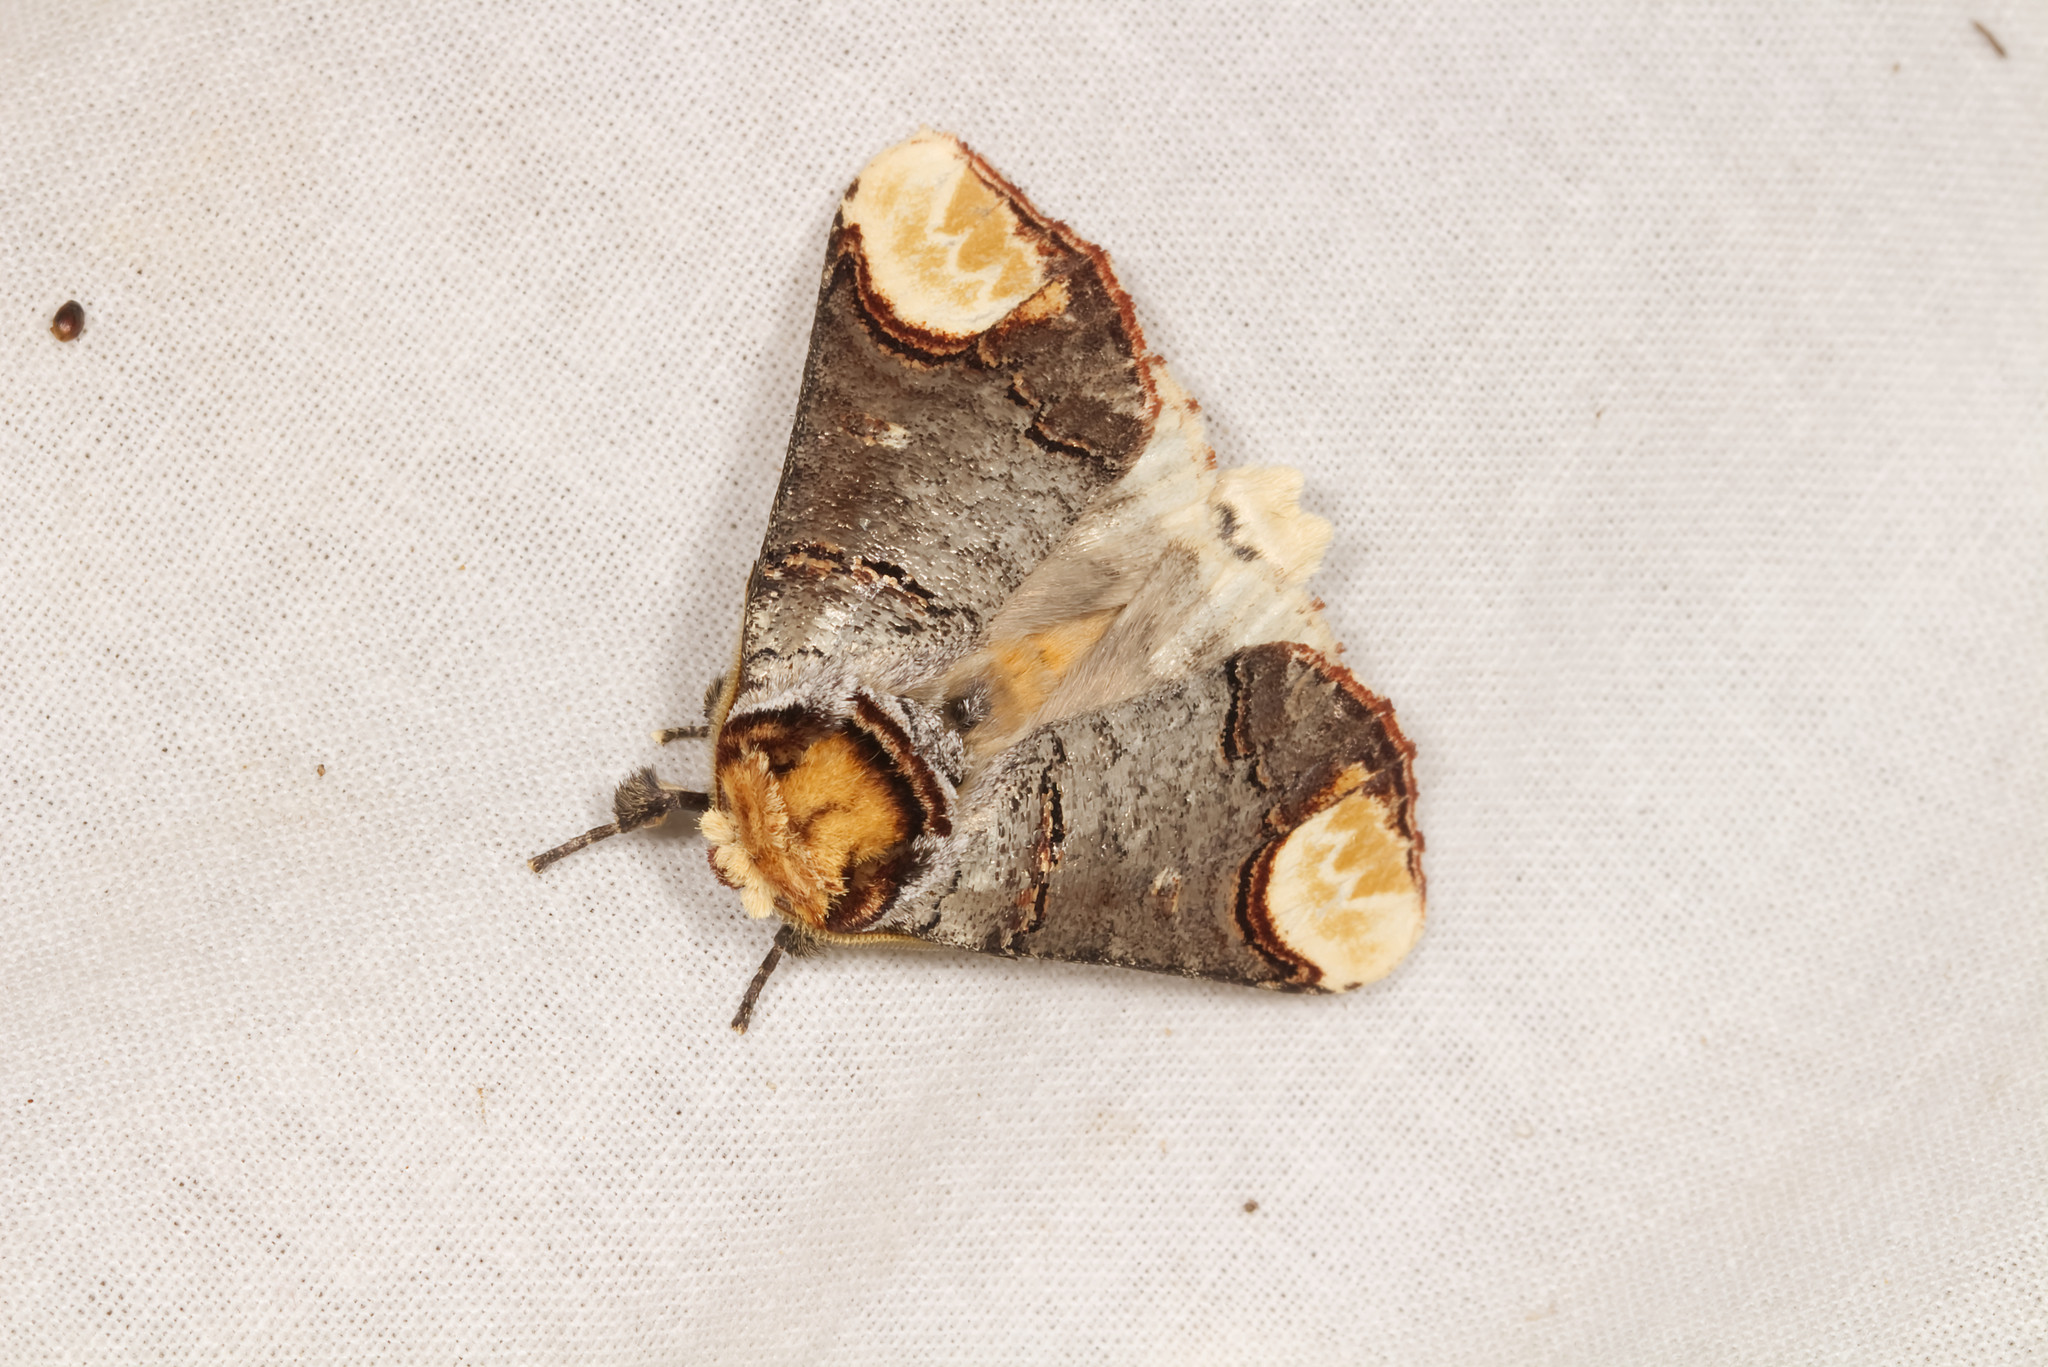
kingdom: Animalia
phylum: Arthropoda
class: Insecta
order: Lepidoptera
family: Notodontidae
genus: Phalera
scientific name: Phalera bucephala
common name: Buff-tip
